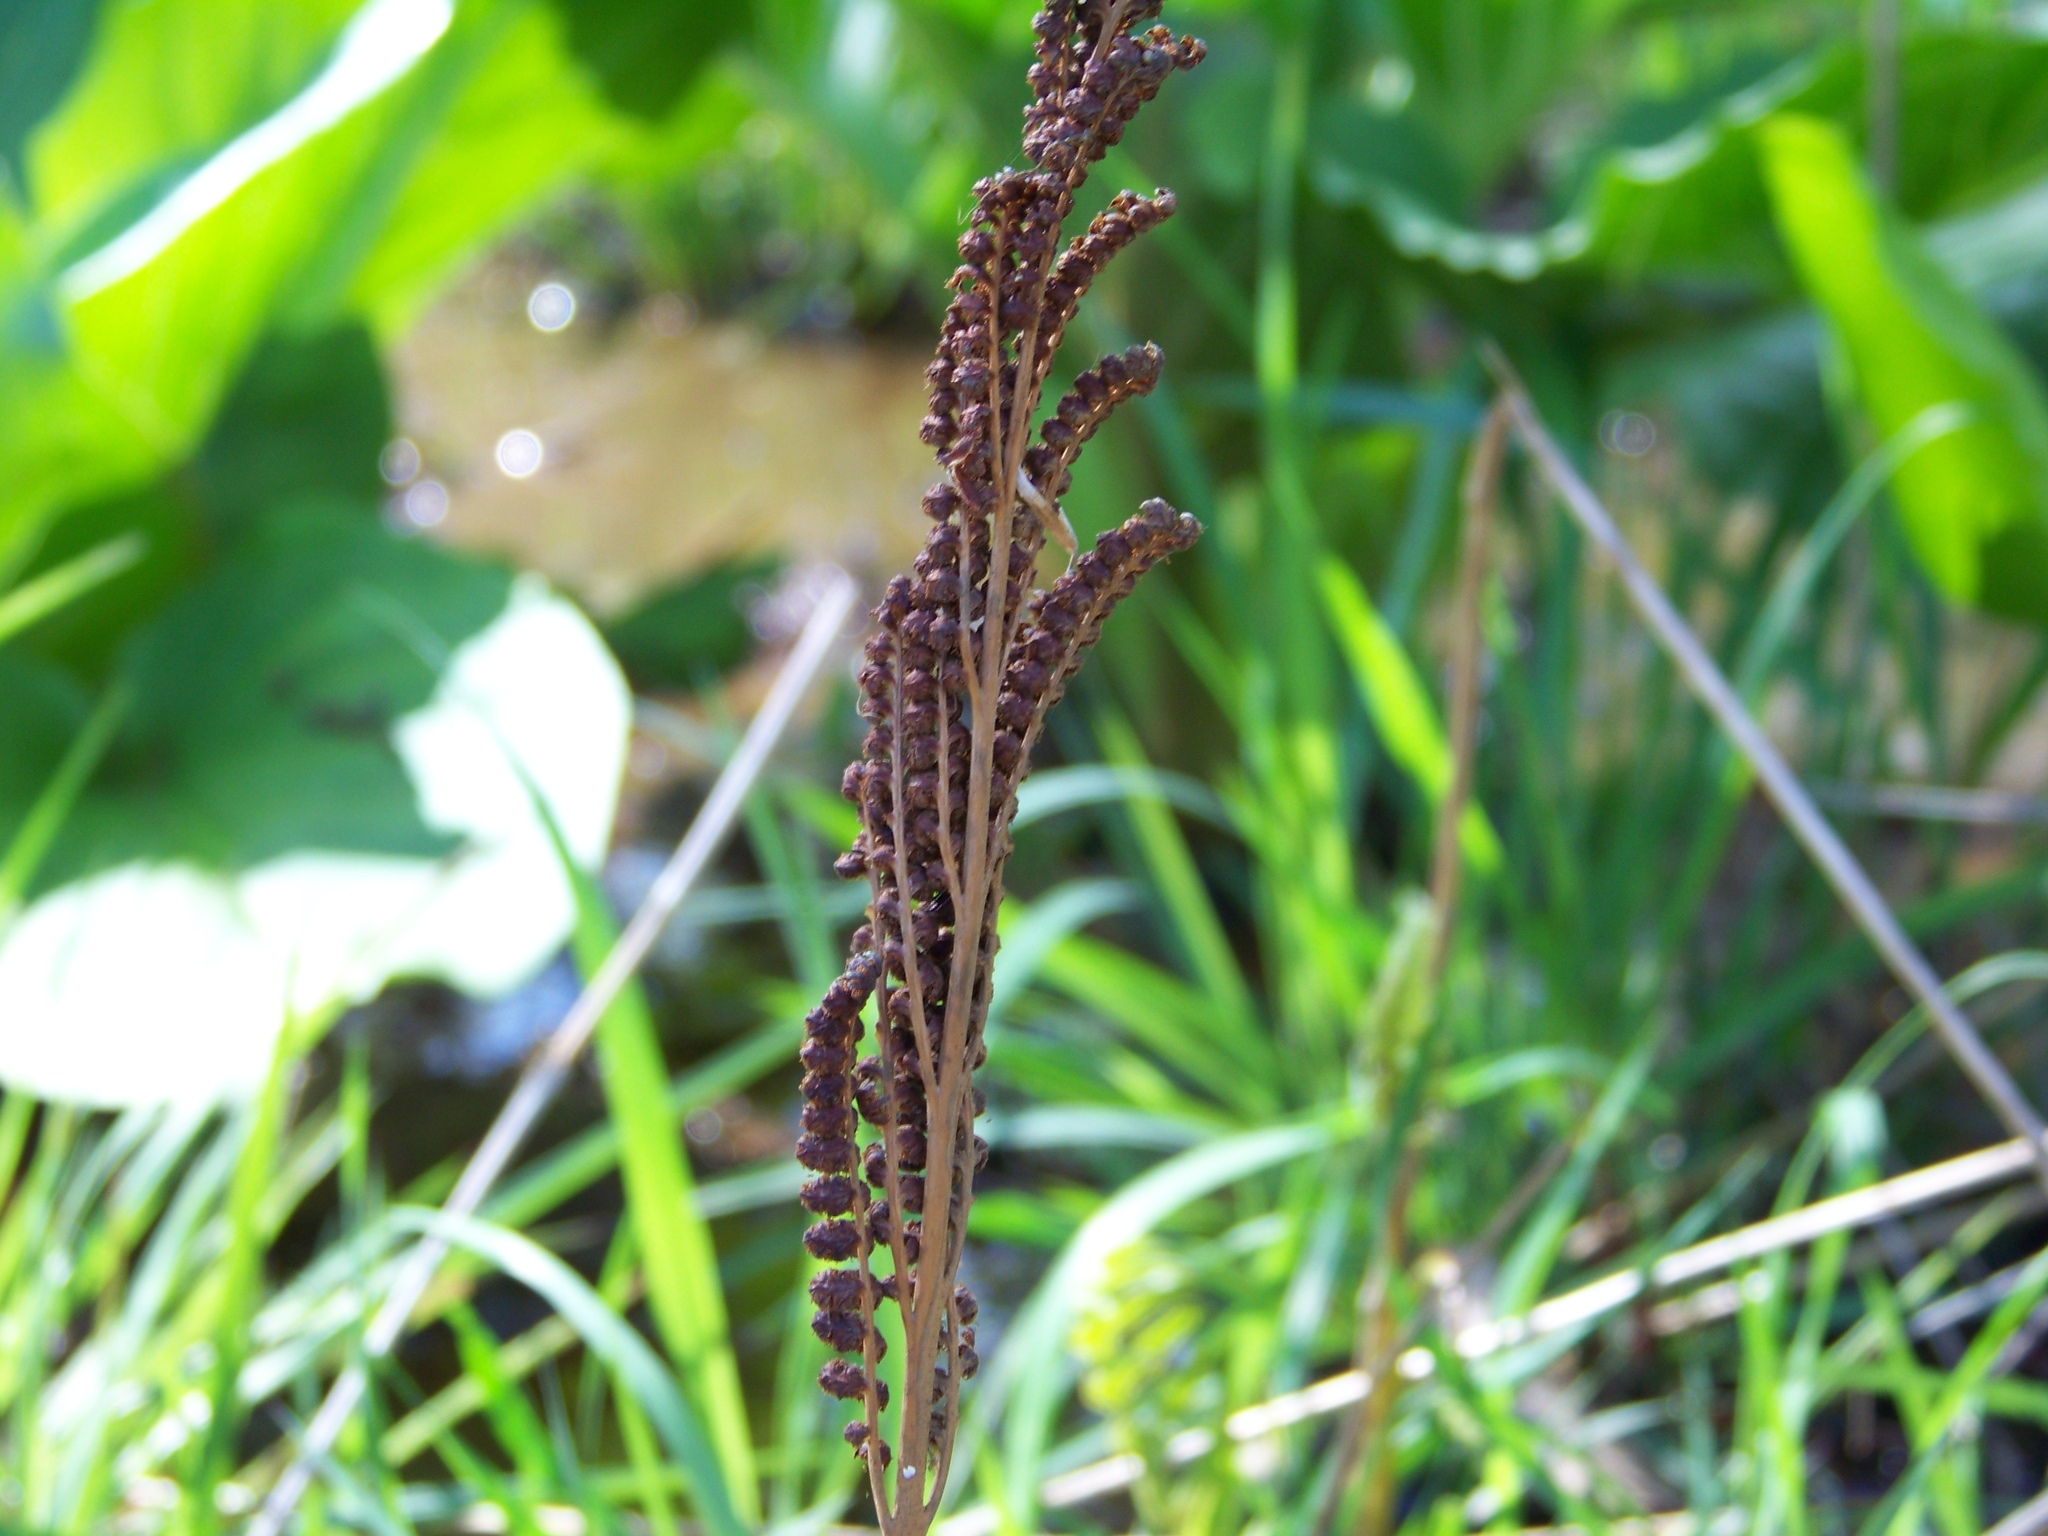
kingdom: Plantae
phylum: Tracheophyta
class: Polypodiopsida
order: Polypodiales
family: Onocleaceae
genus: Onoclea
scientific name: Onoclea sensibilis
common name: Sensitive fern
